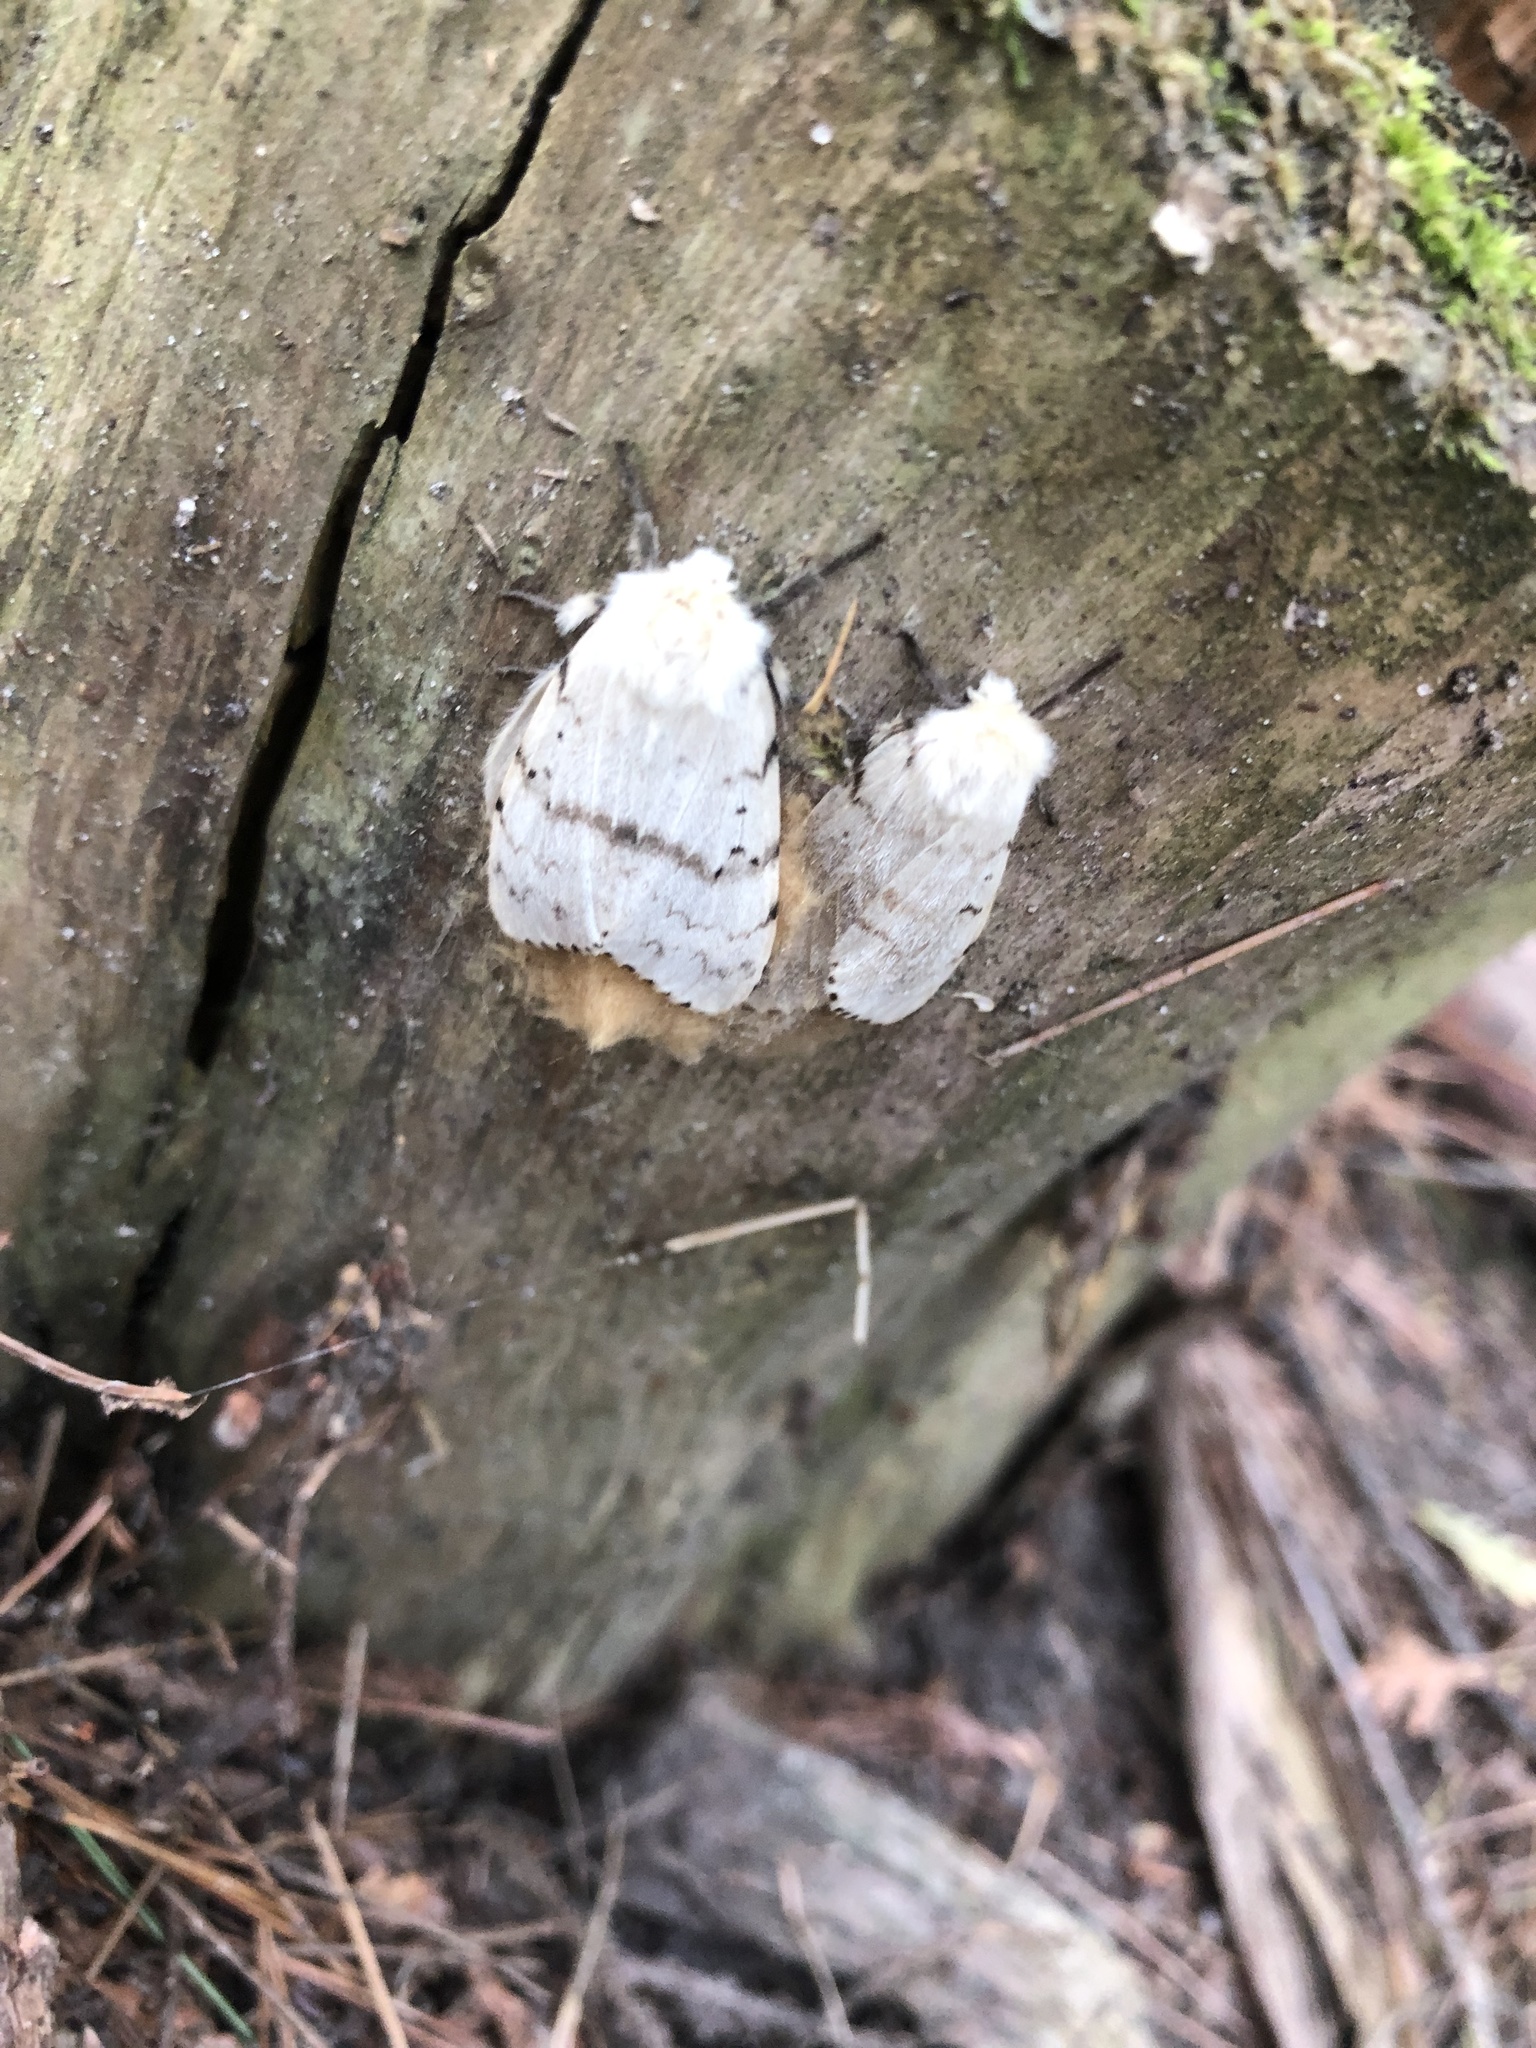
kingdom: Animalia
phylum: Arthropoda
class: Insecta
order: Lepidoptera
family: Erebidae
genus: Lymantria
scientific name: Lymantria dispar
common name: Gypsy moth
